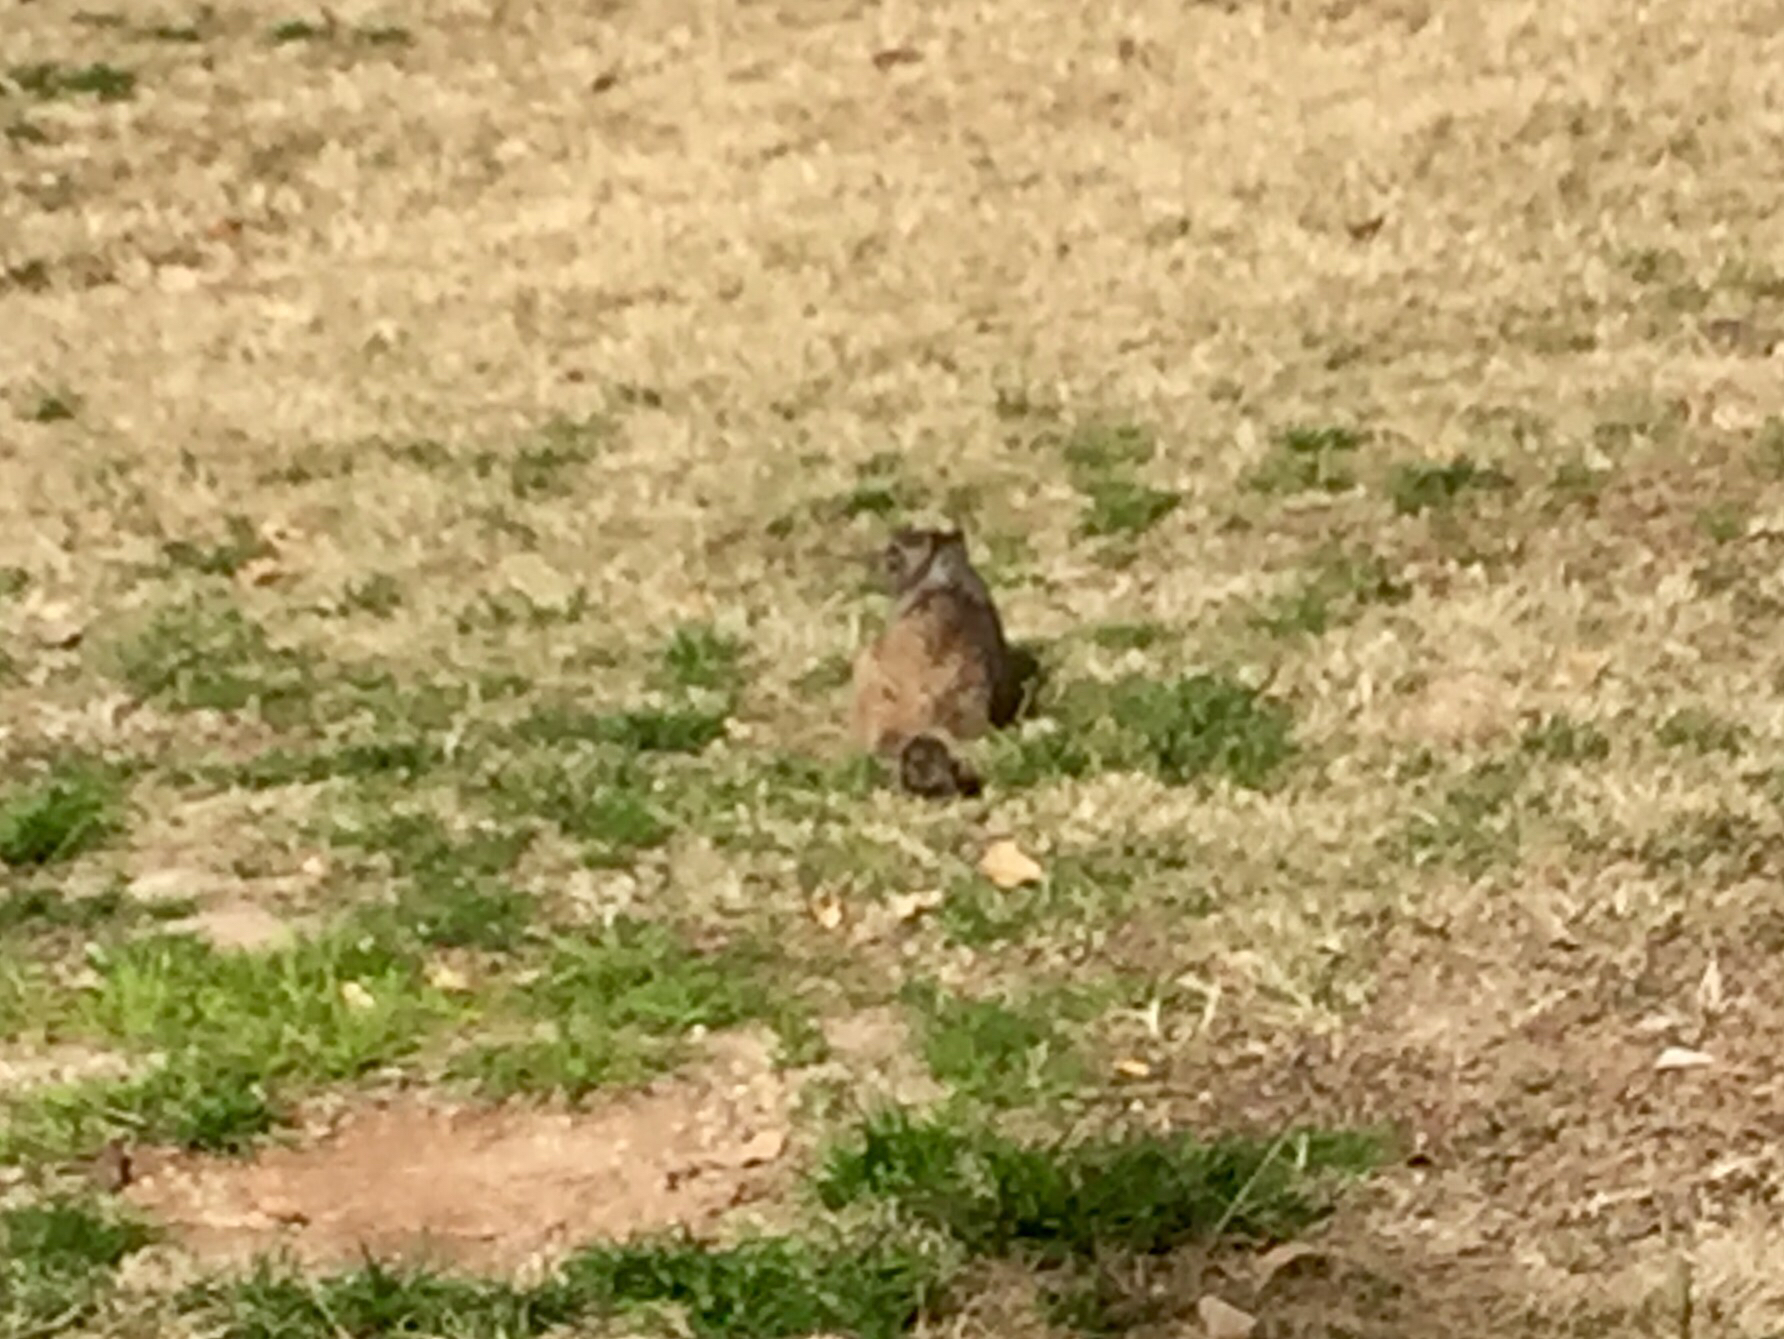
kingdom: Animalia
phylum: Chordata
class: Mammalia
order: Rodentia
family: Sciuridae
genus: Otospermophilus
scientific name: Otospermophilus variegatus
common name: Rock squirrel
